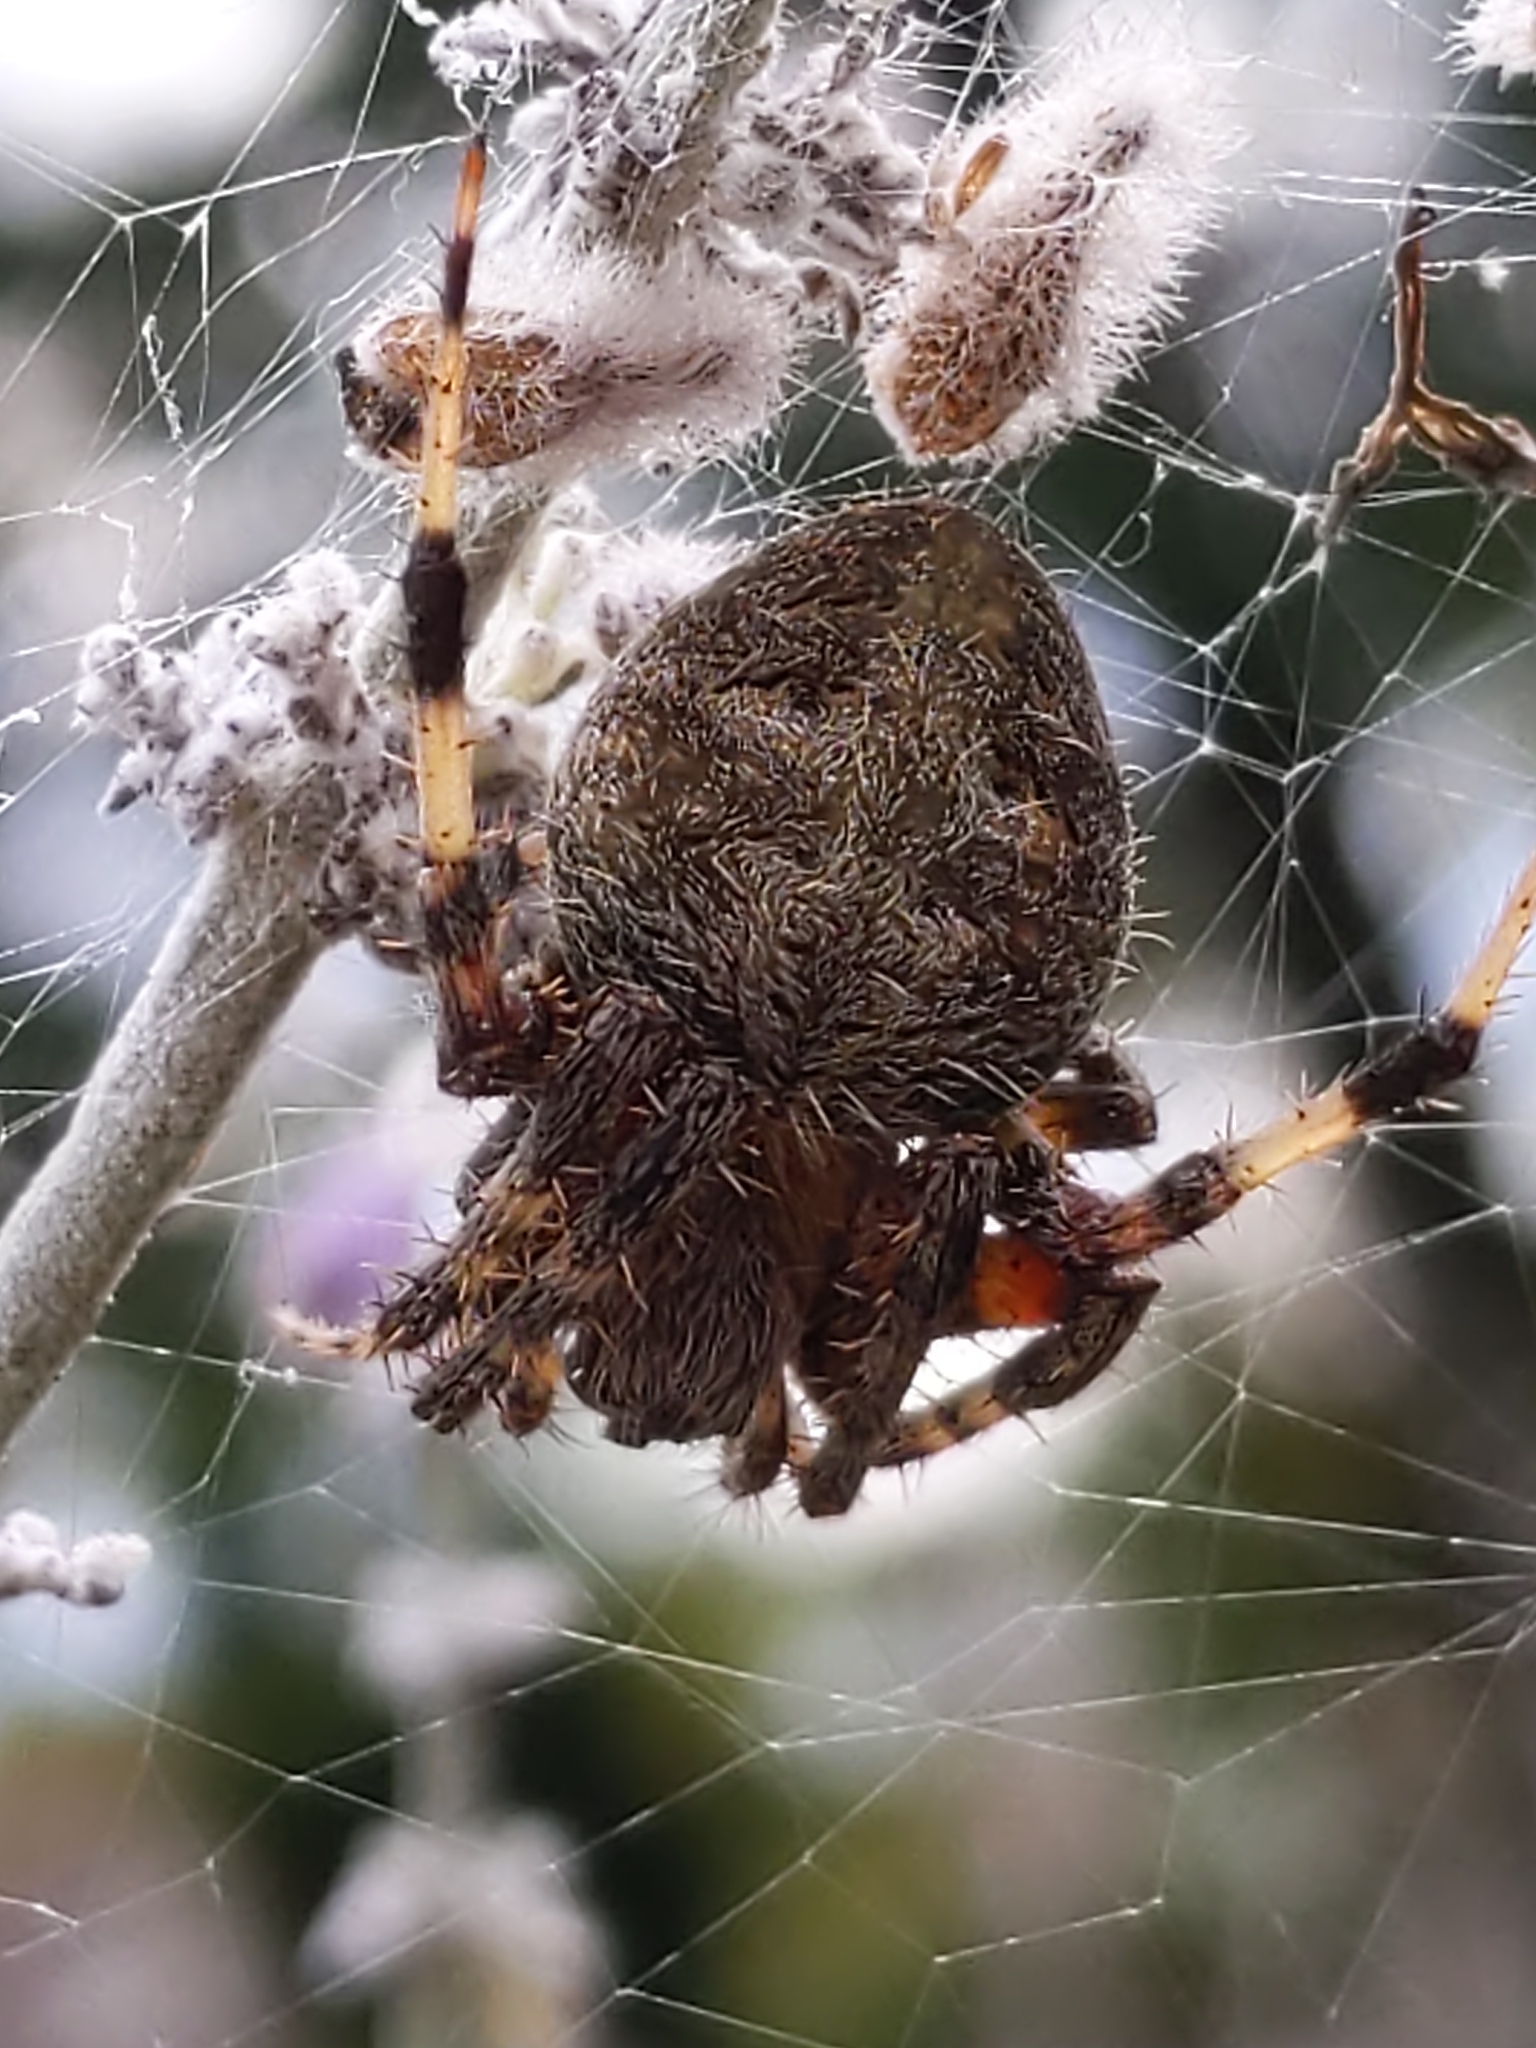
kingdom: Animalia
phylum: Arthropoda
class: Arachnida
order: Araneae
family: Araneidae
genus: Neoscona
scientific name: Neoscona crucifera
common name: Spotted orbweaver
